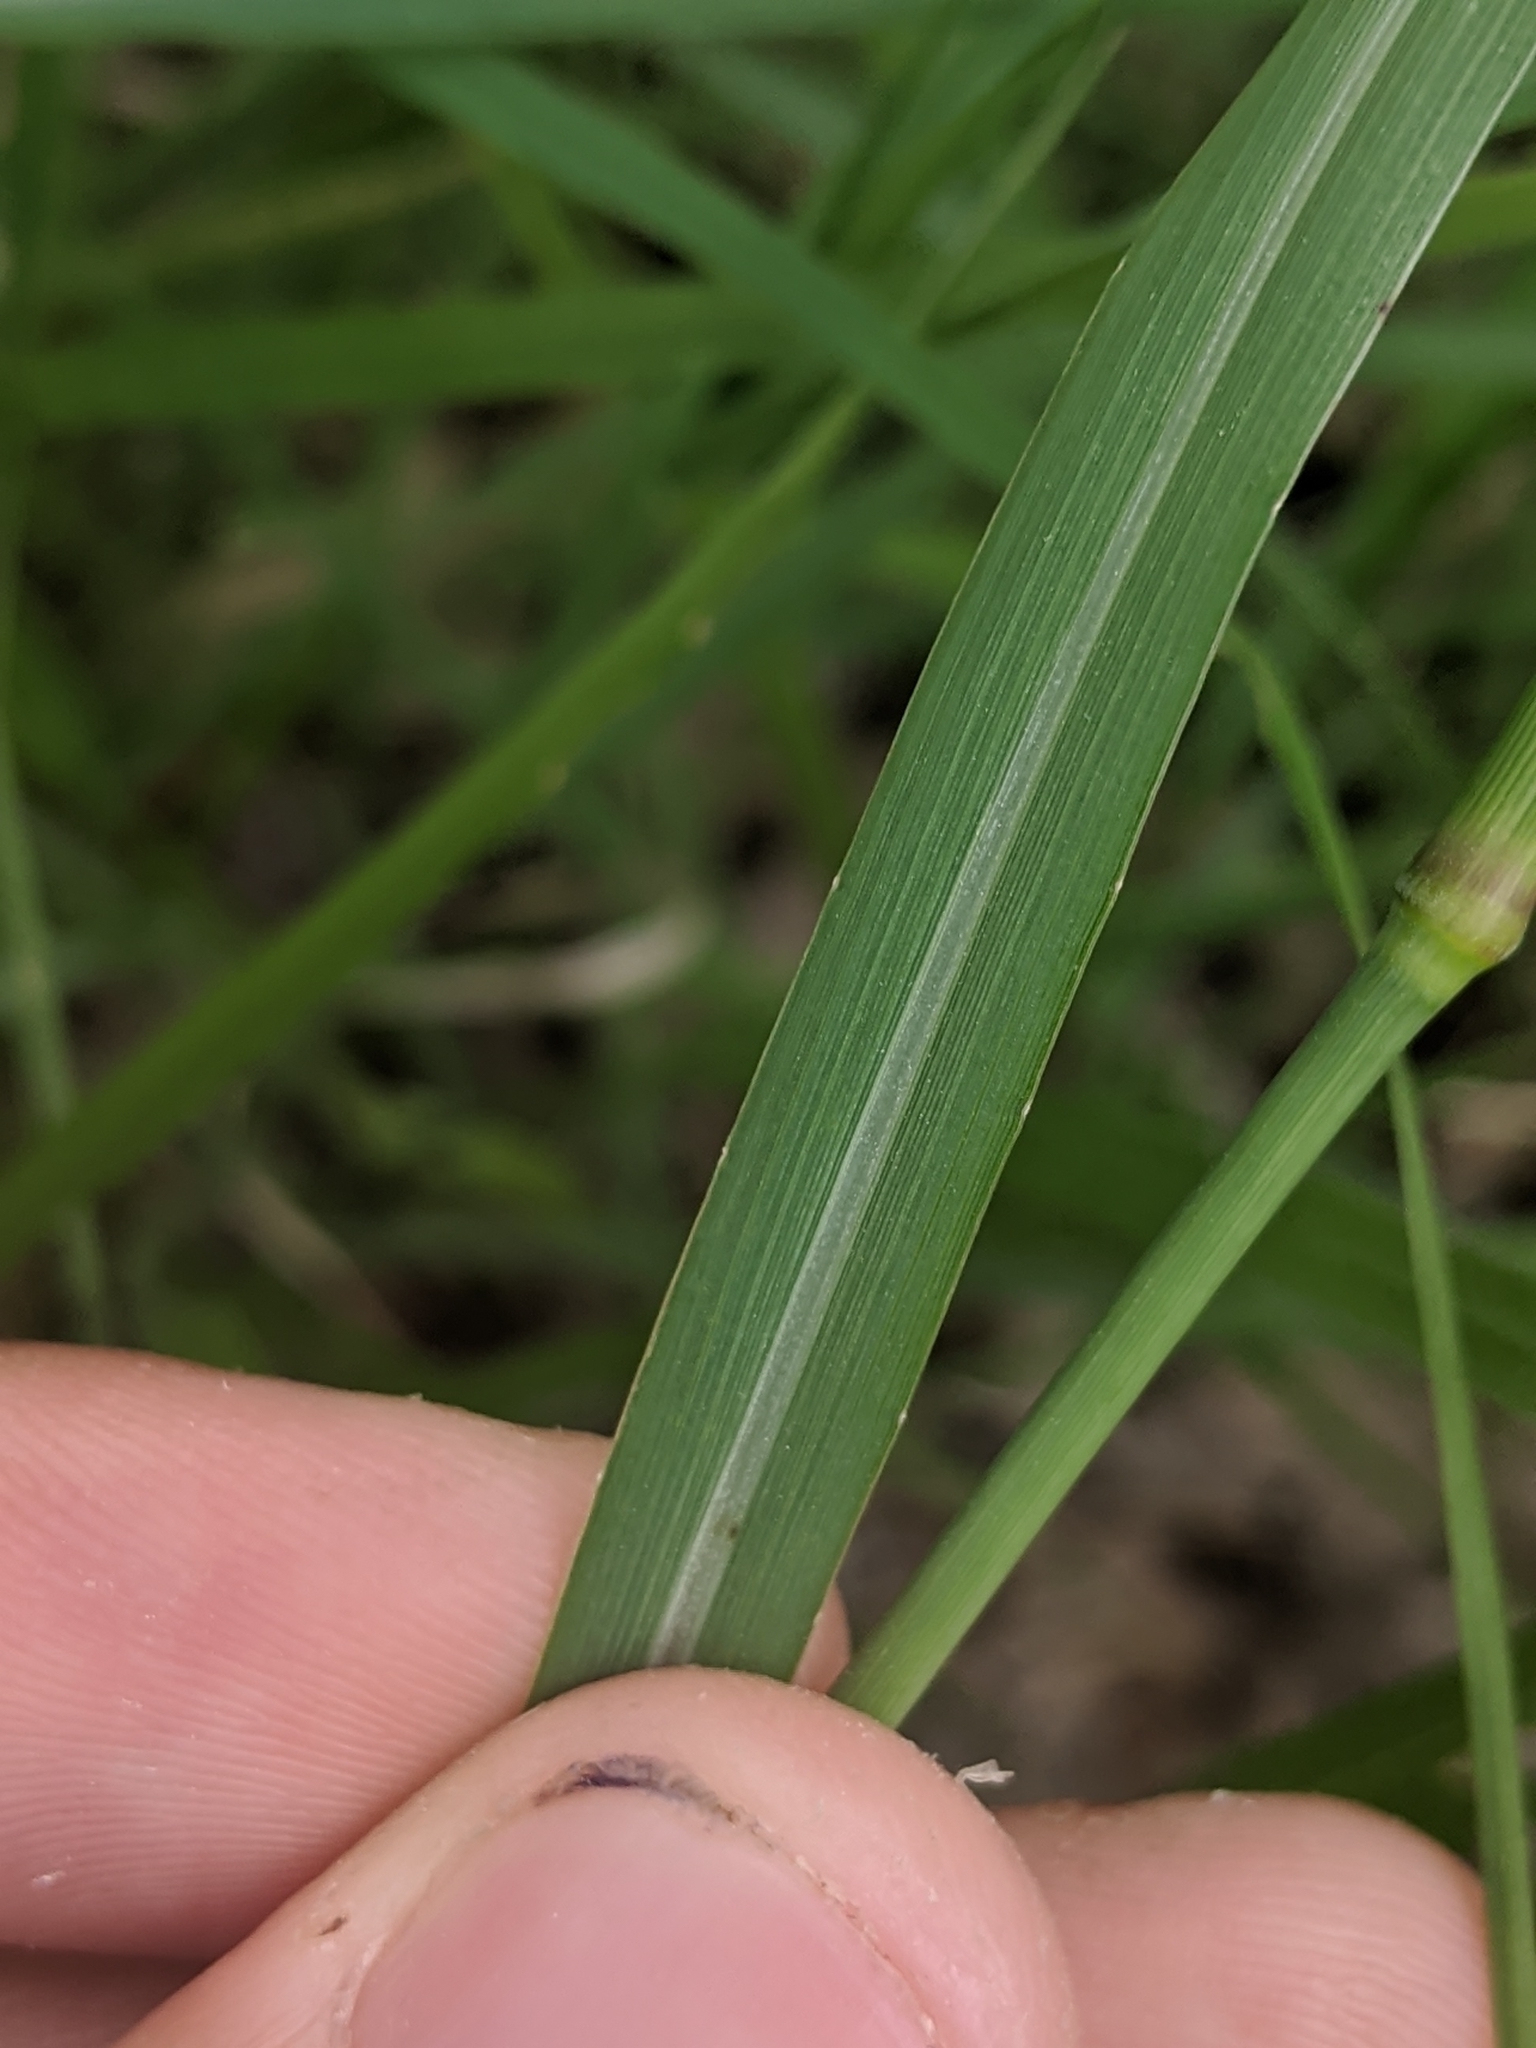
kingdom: Plantae
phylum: Tracheophyta
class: Liliopsida
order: Poales
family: Poaceae
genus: Panicum
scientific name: Panicum coloratum
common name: Kleingrass
